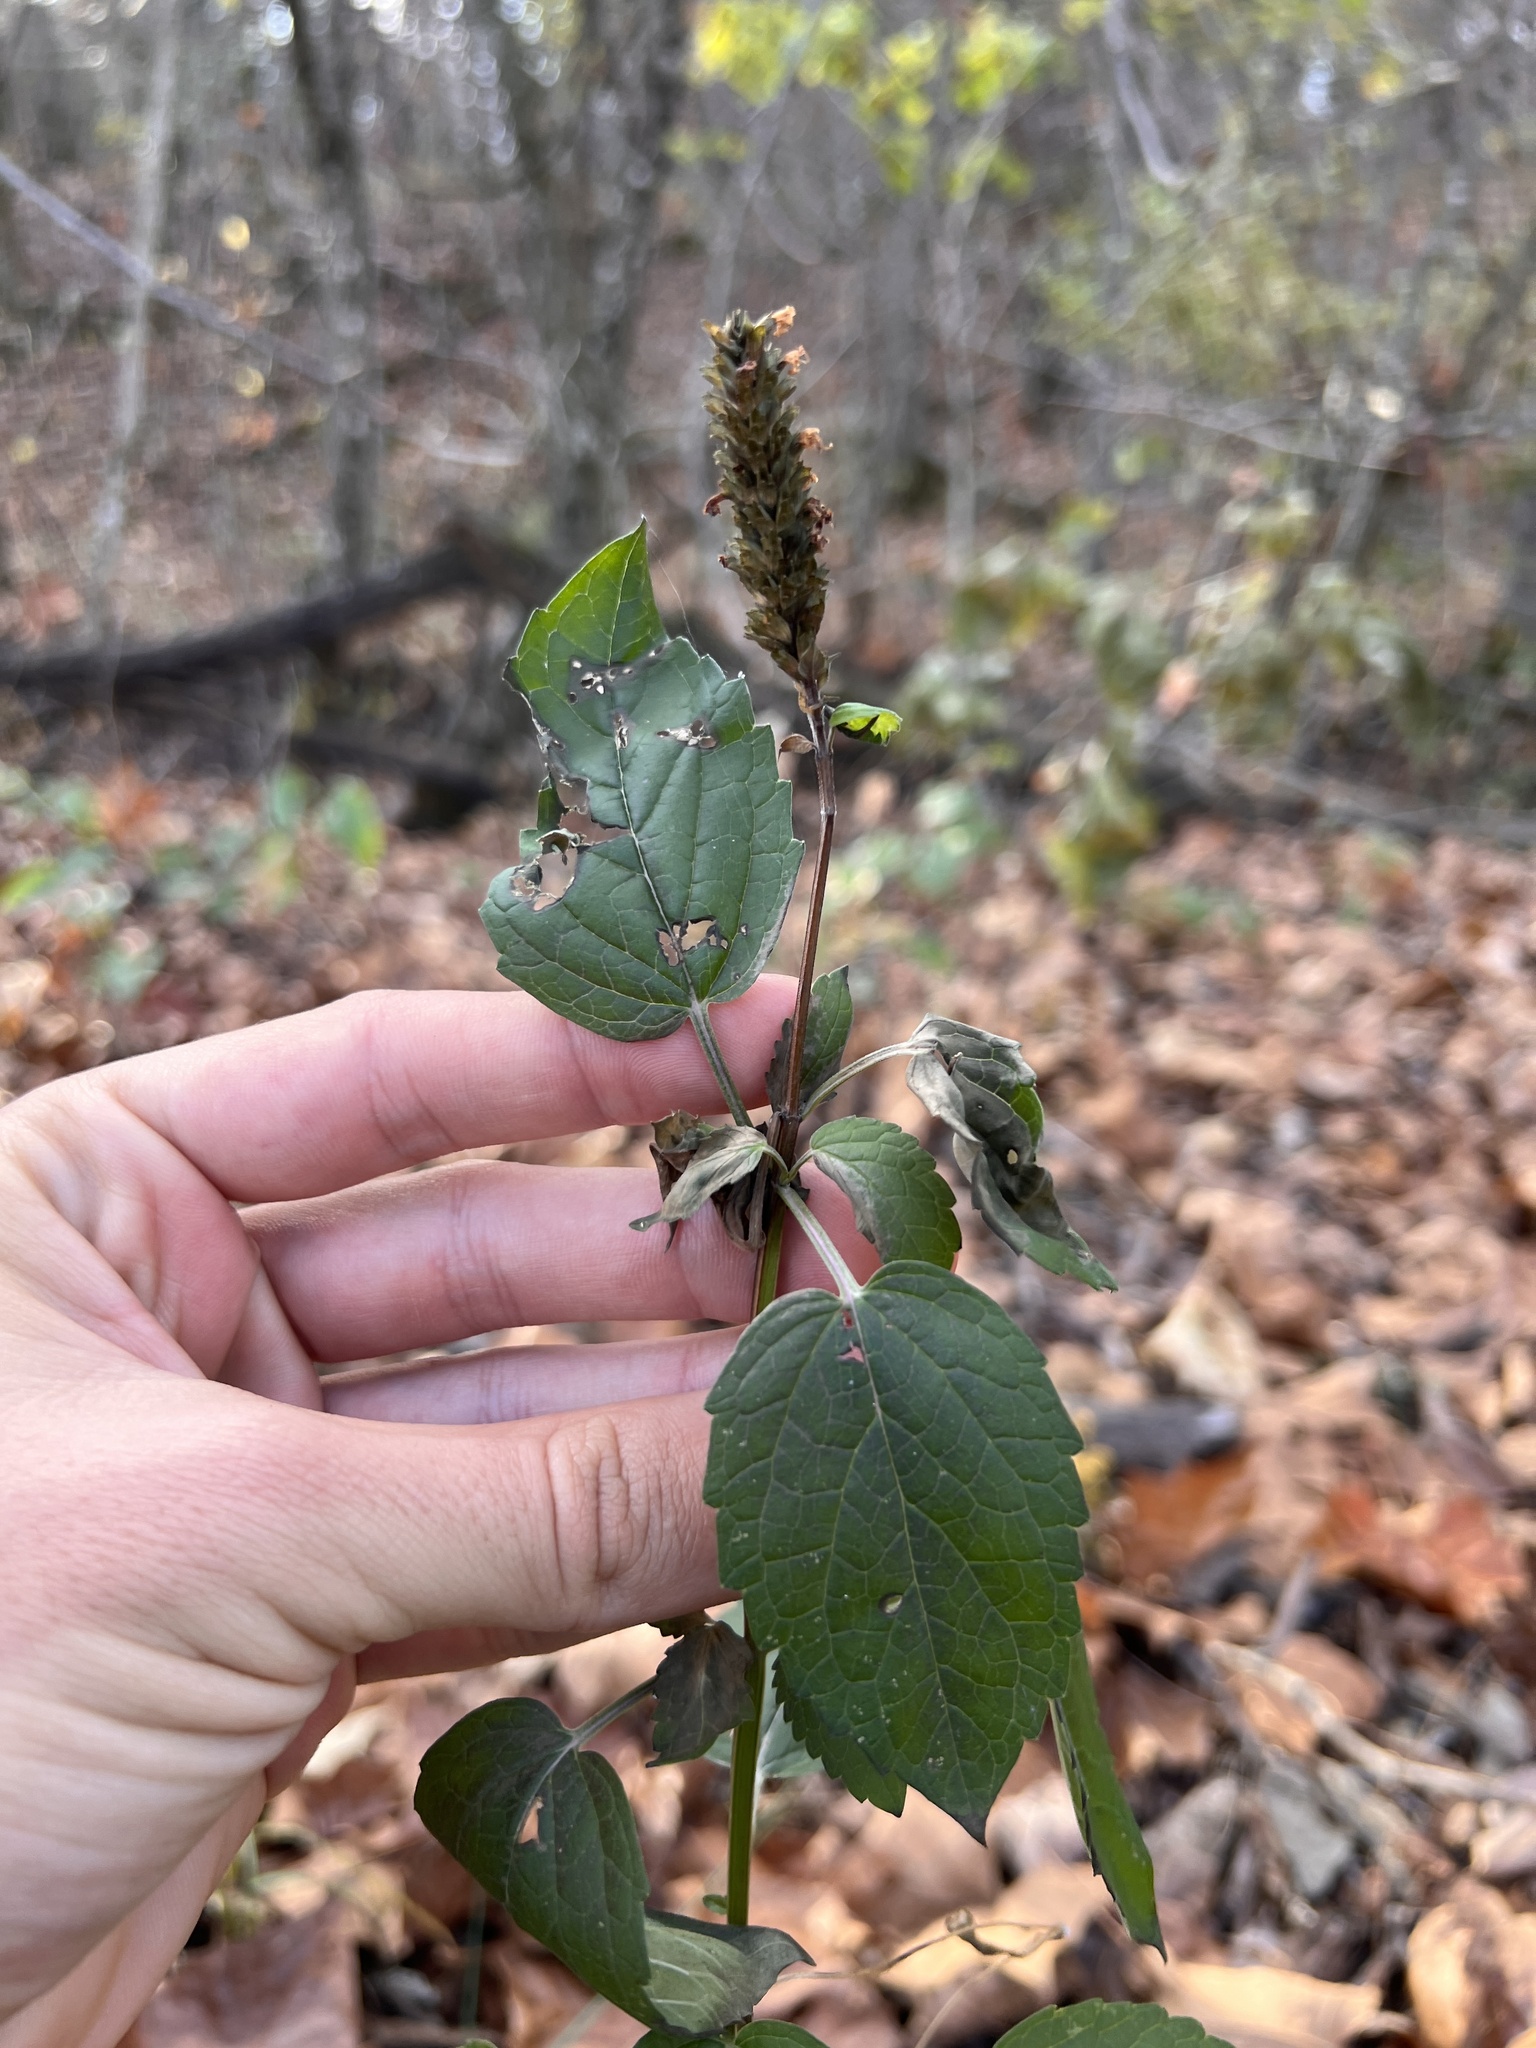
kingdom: Plantae
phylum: Tracheophyta
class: Magnoliopsida
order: Lamiales
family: Lamiaceae
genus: Agastache
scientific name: Agastache nepetoides
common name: Catnip giant hyssop
